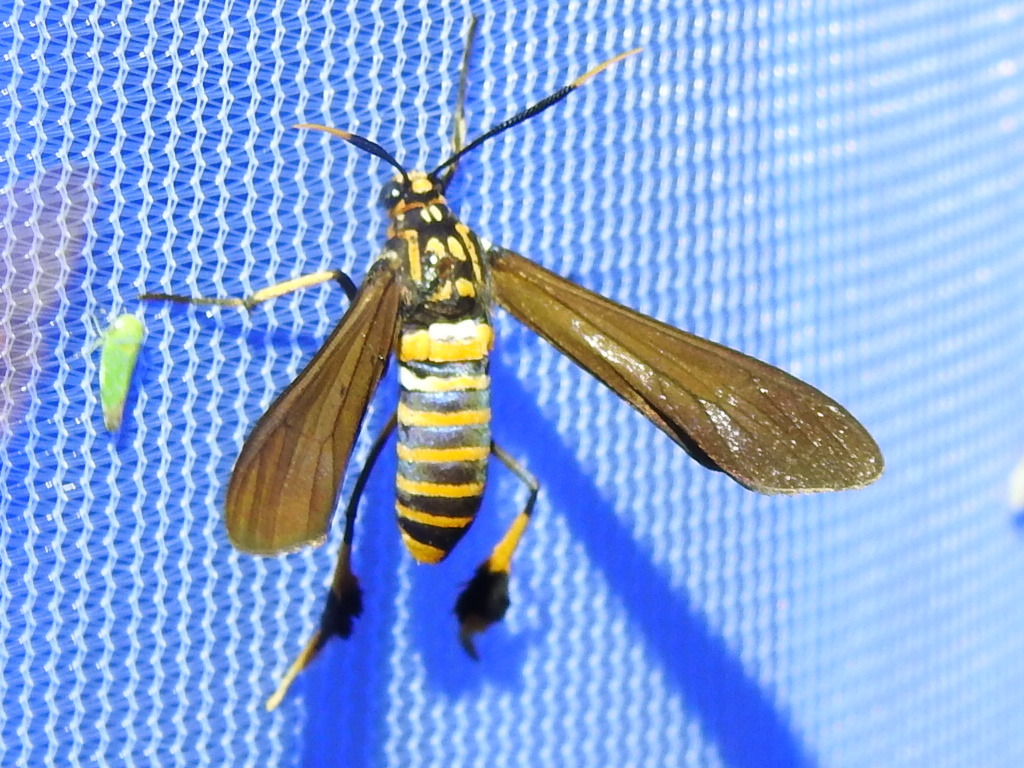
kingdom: Animalia
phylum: Arthropoda
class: Insecta
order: Lepidoptera
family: Erebidae
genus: Horama
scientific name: Horama panthalon
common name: Texas wasp moth
